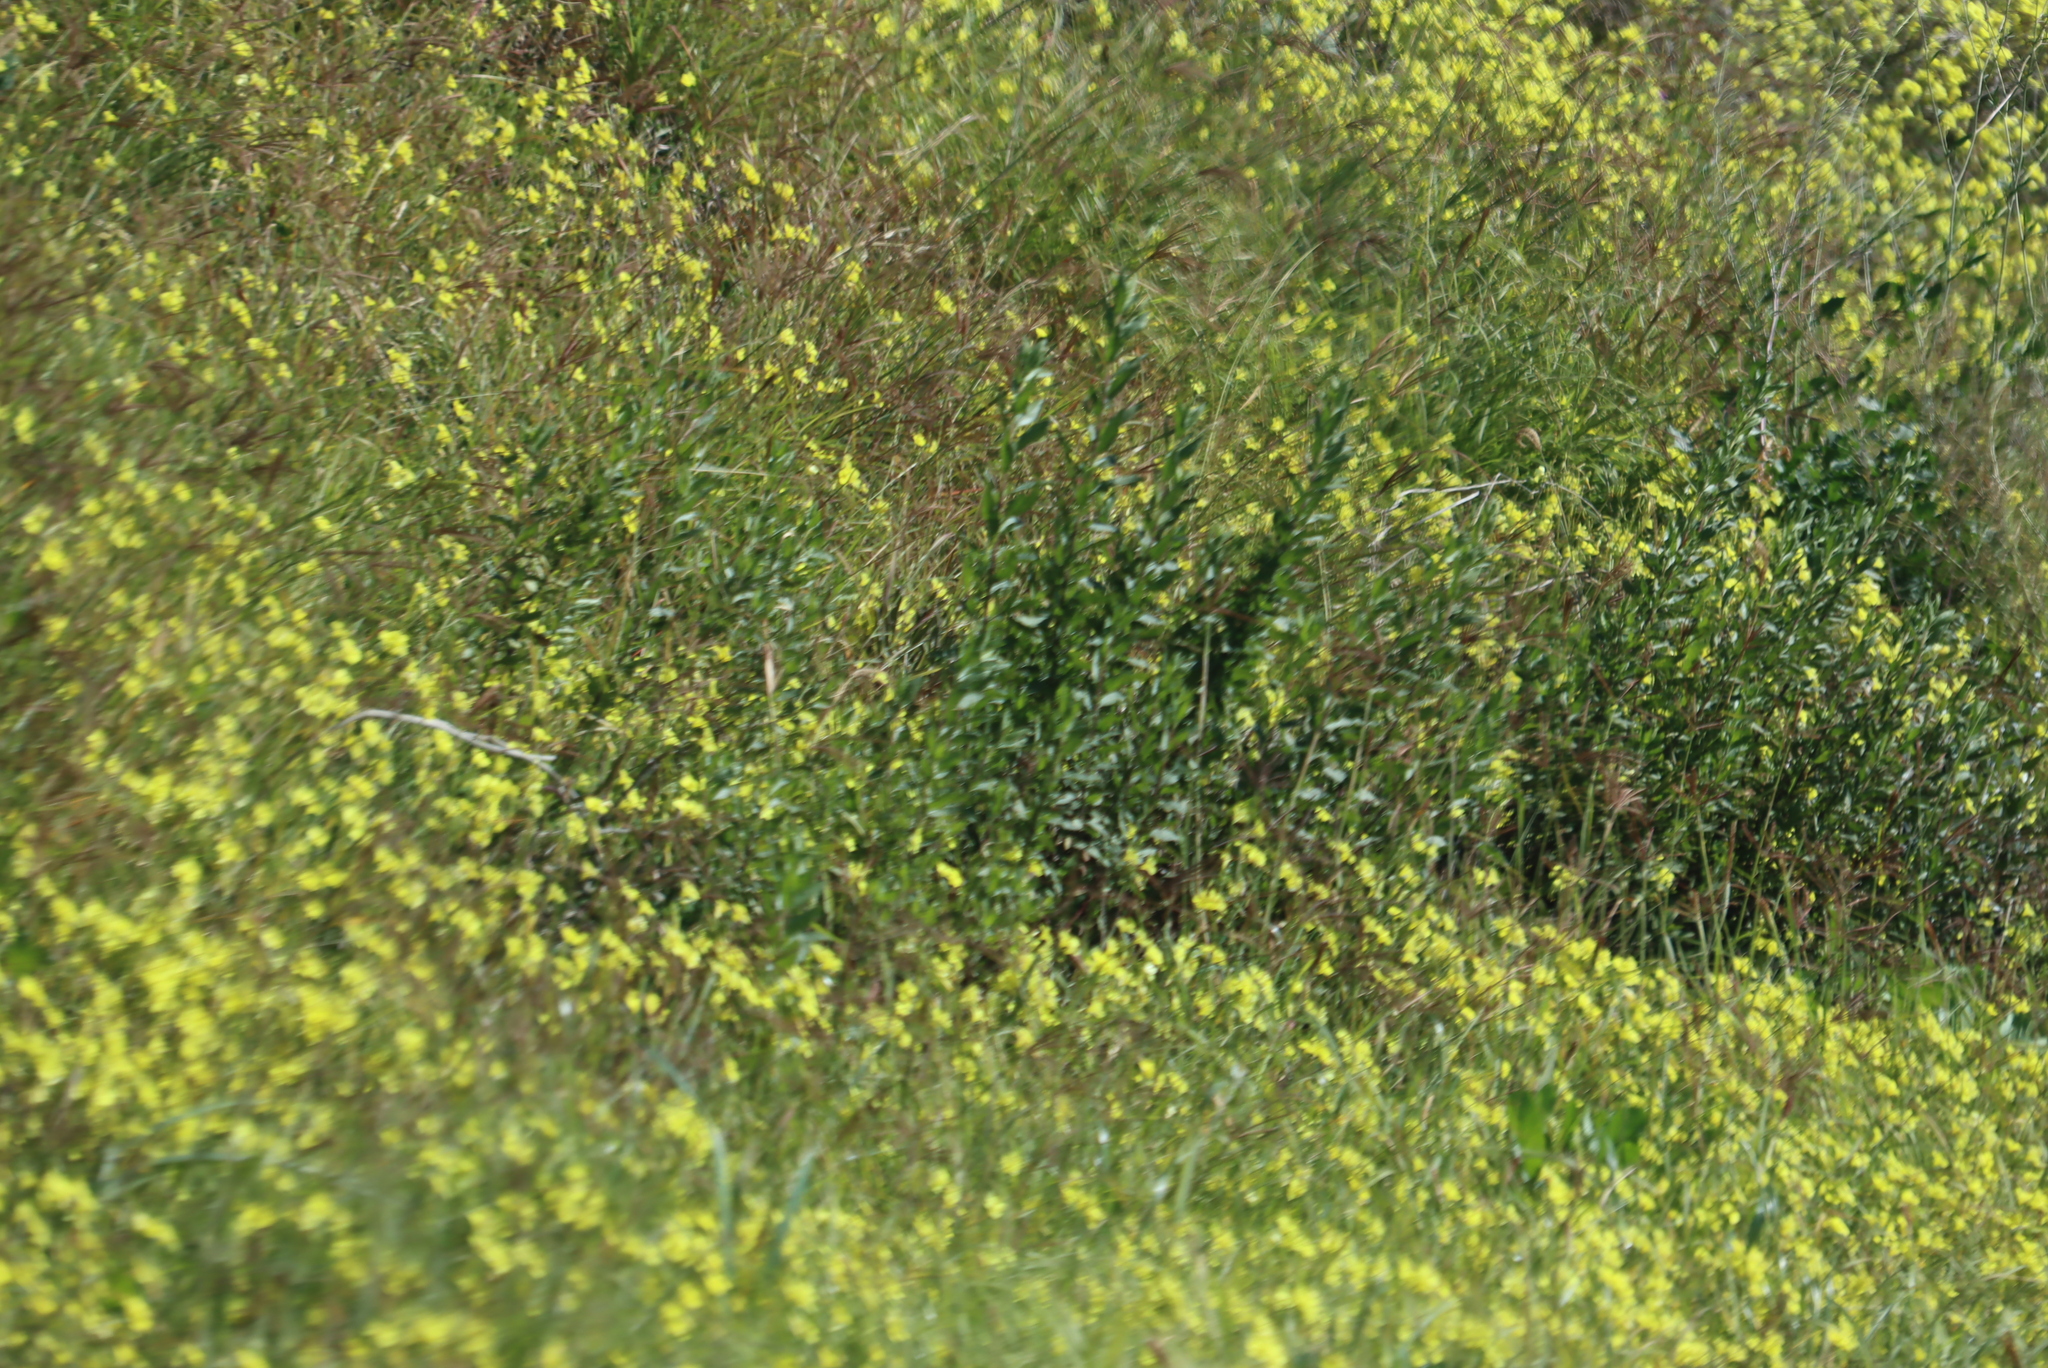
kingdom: Plantae
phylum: Tracheophyta
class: Magnoliopsida
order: Oxalidales
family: Oxalidaceae
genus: Oxalis
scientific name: Oxalis pes-caprae
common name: Bermuda-buttercup
